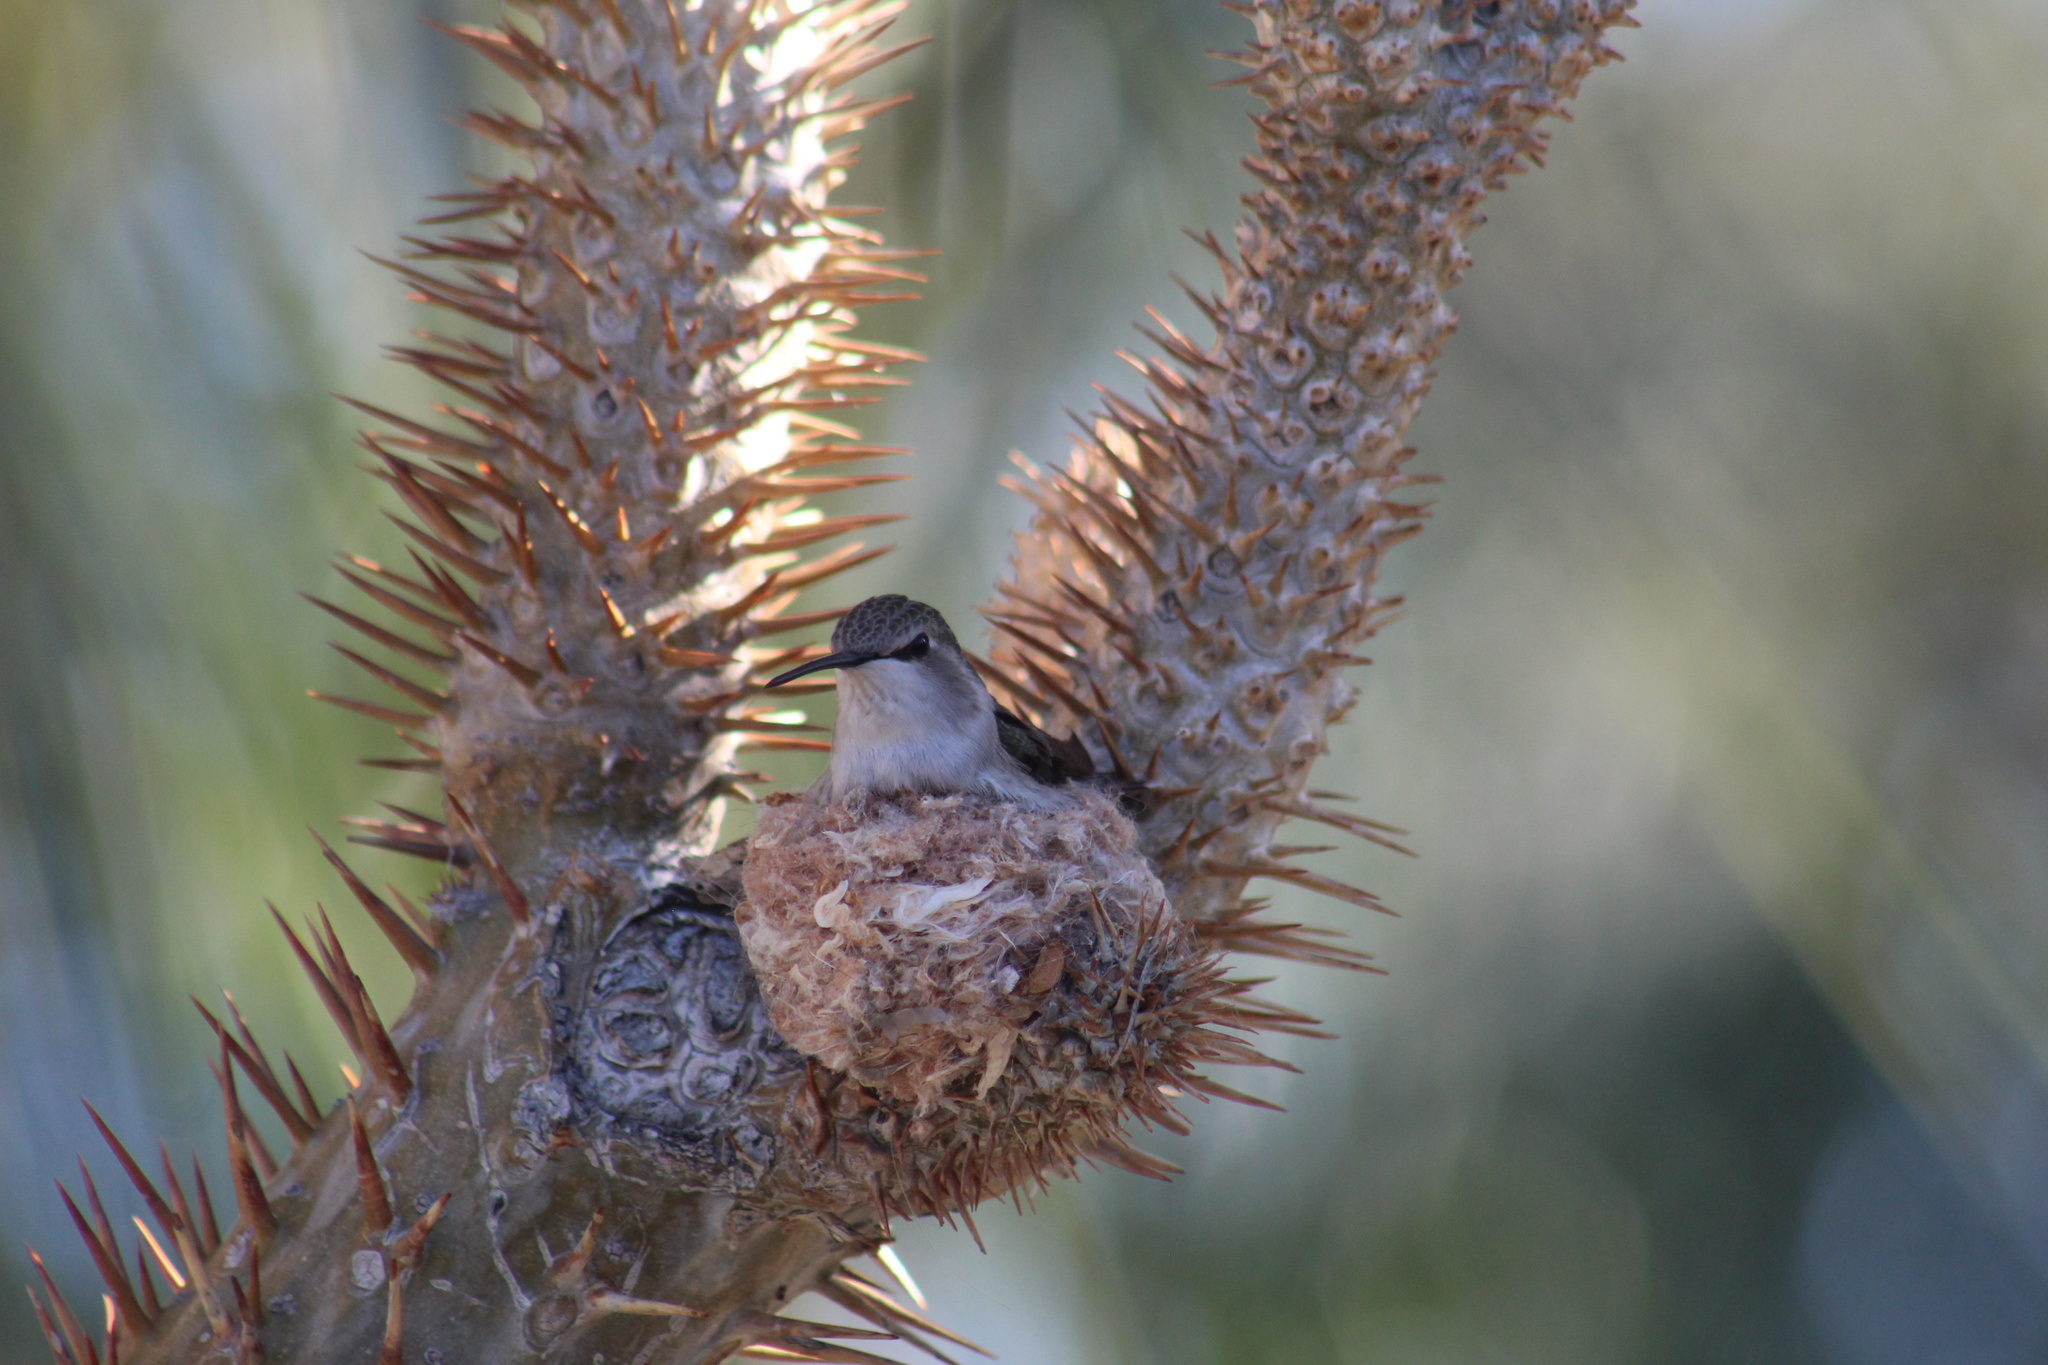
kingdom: Animalia
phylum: Chordata
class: Aves
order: Apodiformes
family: Trochilidae
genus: Calypte
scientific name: Calypte costae
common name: Costa's hummingbird
